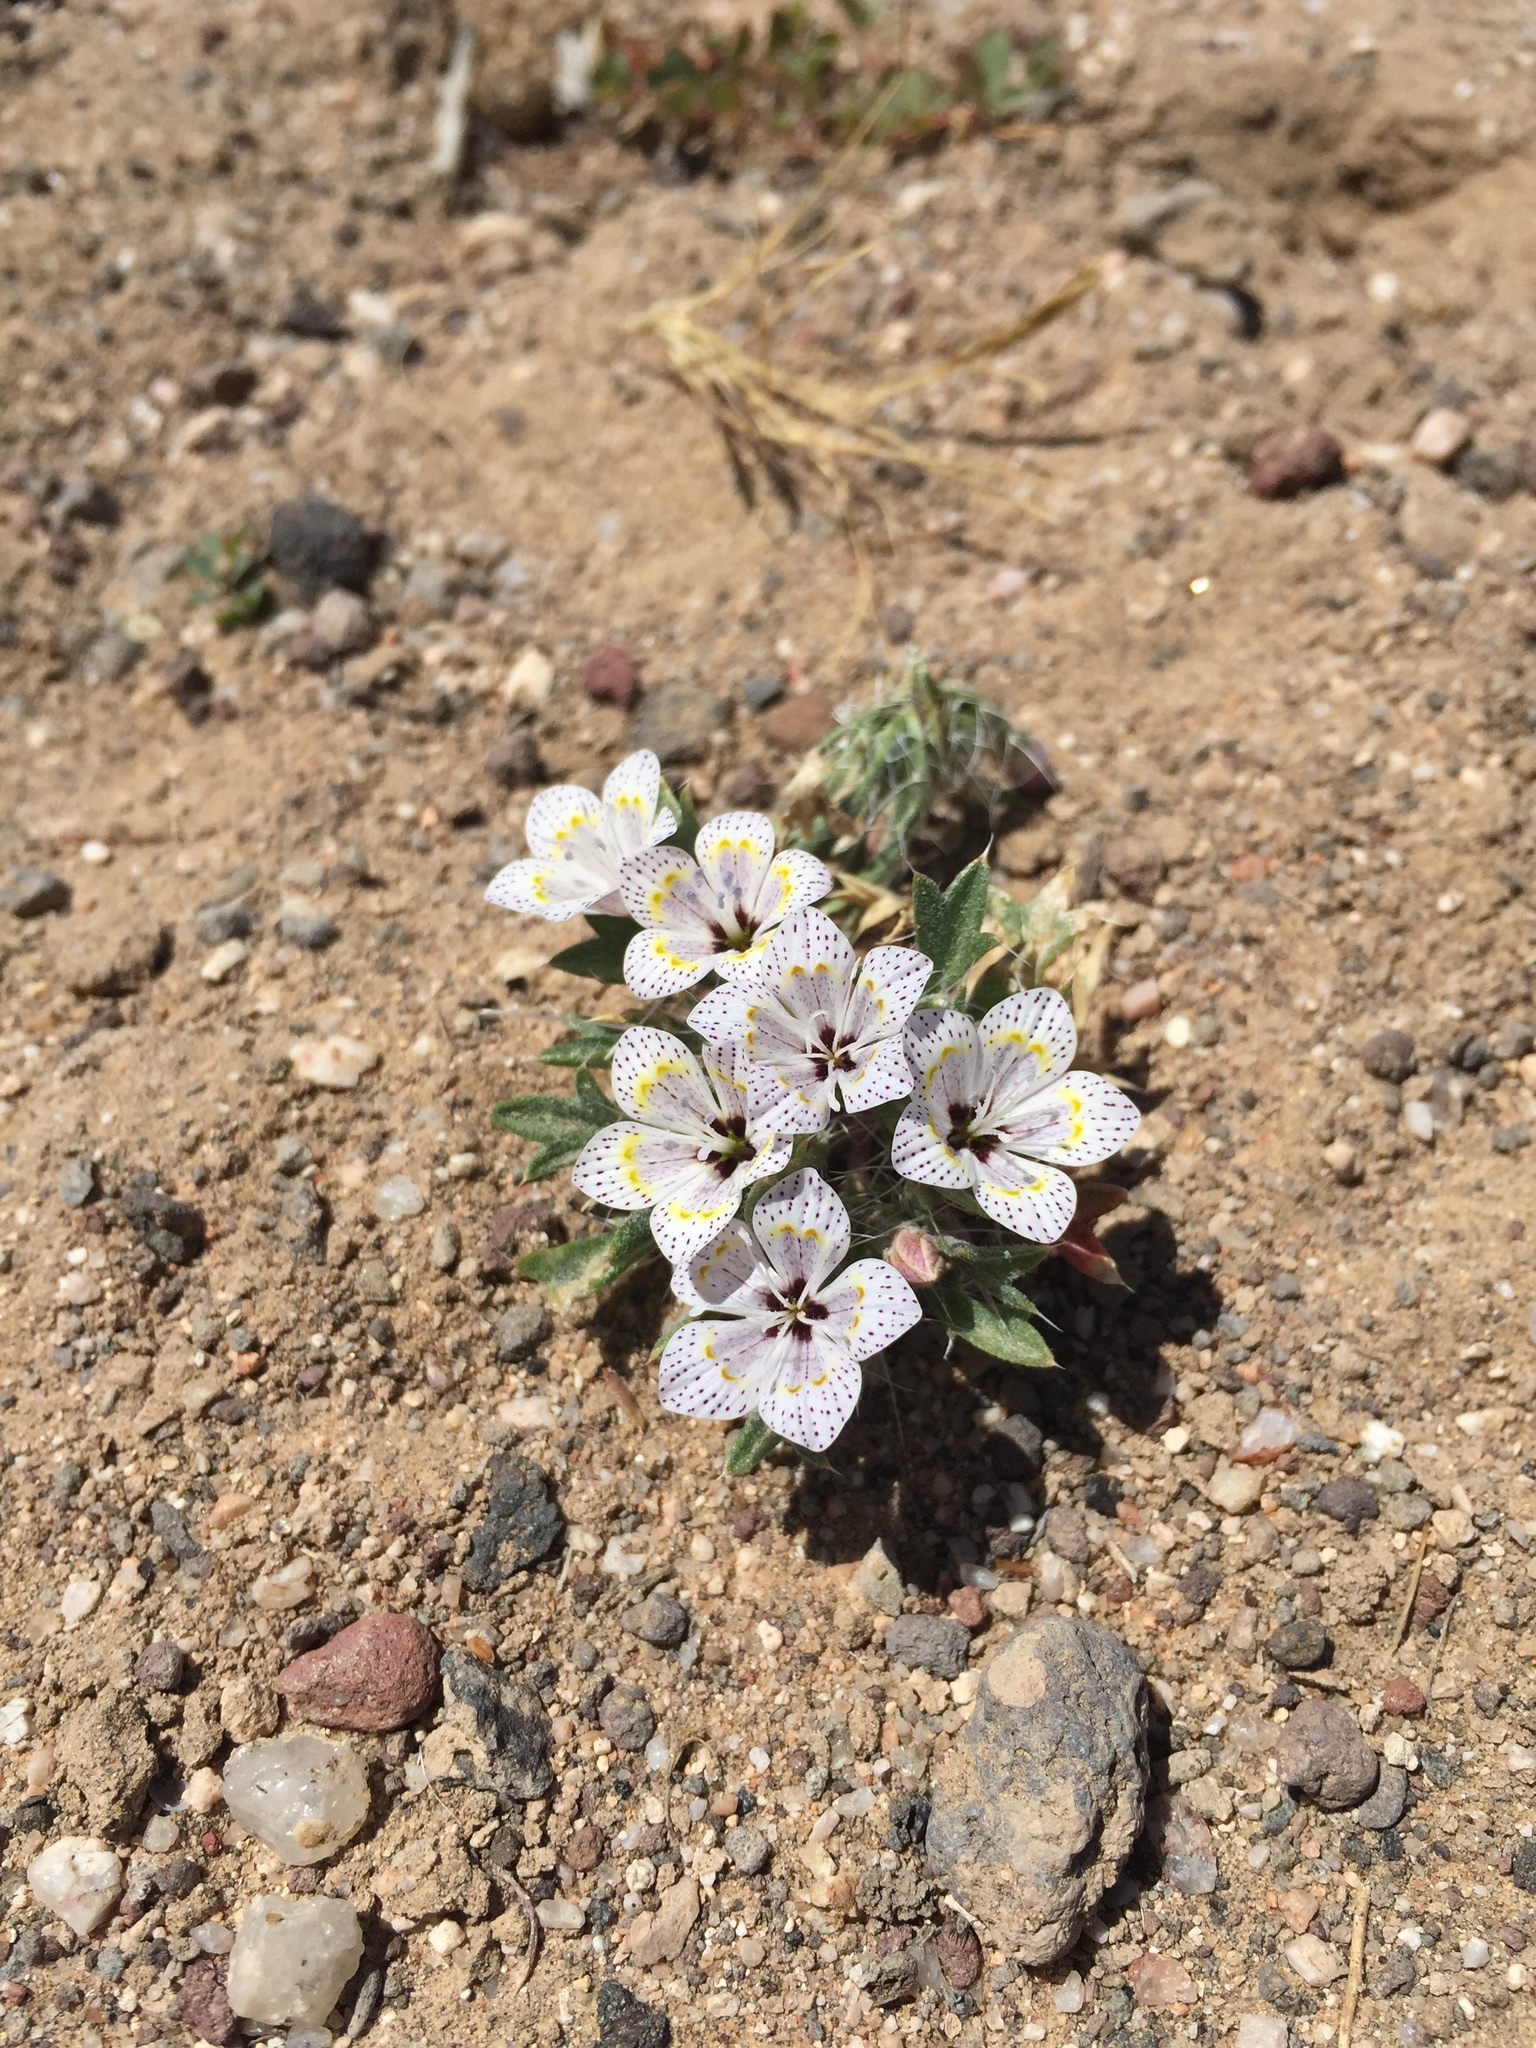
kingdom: Plantae
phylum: Tracheophyta
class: Magnoliopsida
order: Ericales
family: Polemoniaceae
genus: Langloisia
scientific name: Langloisia setosissima
